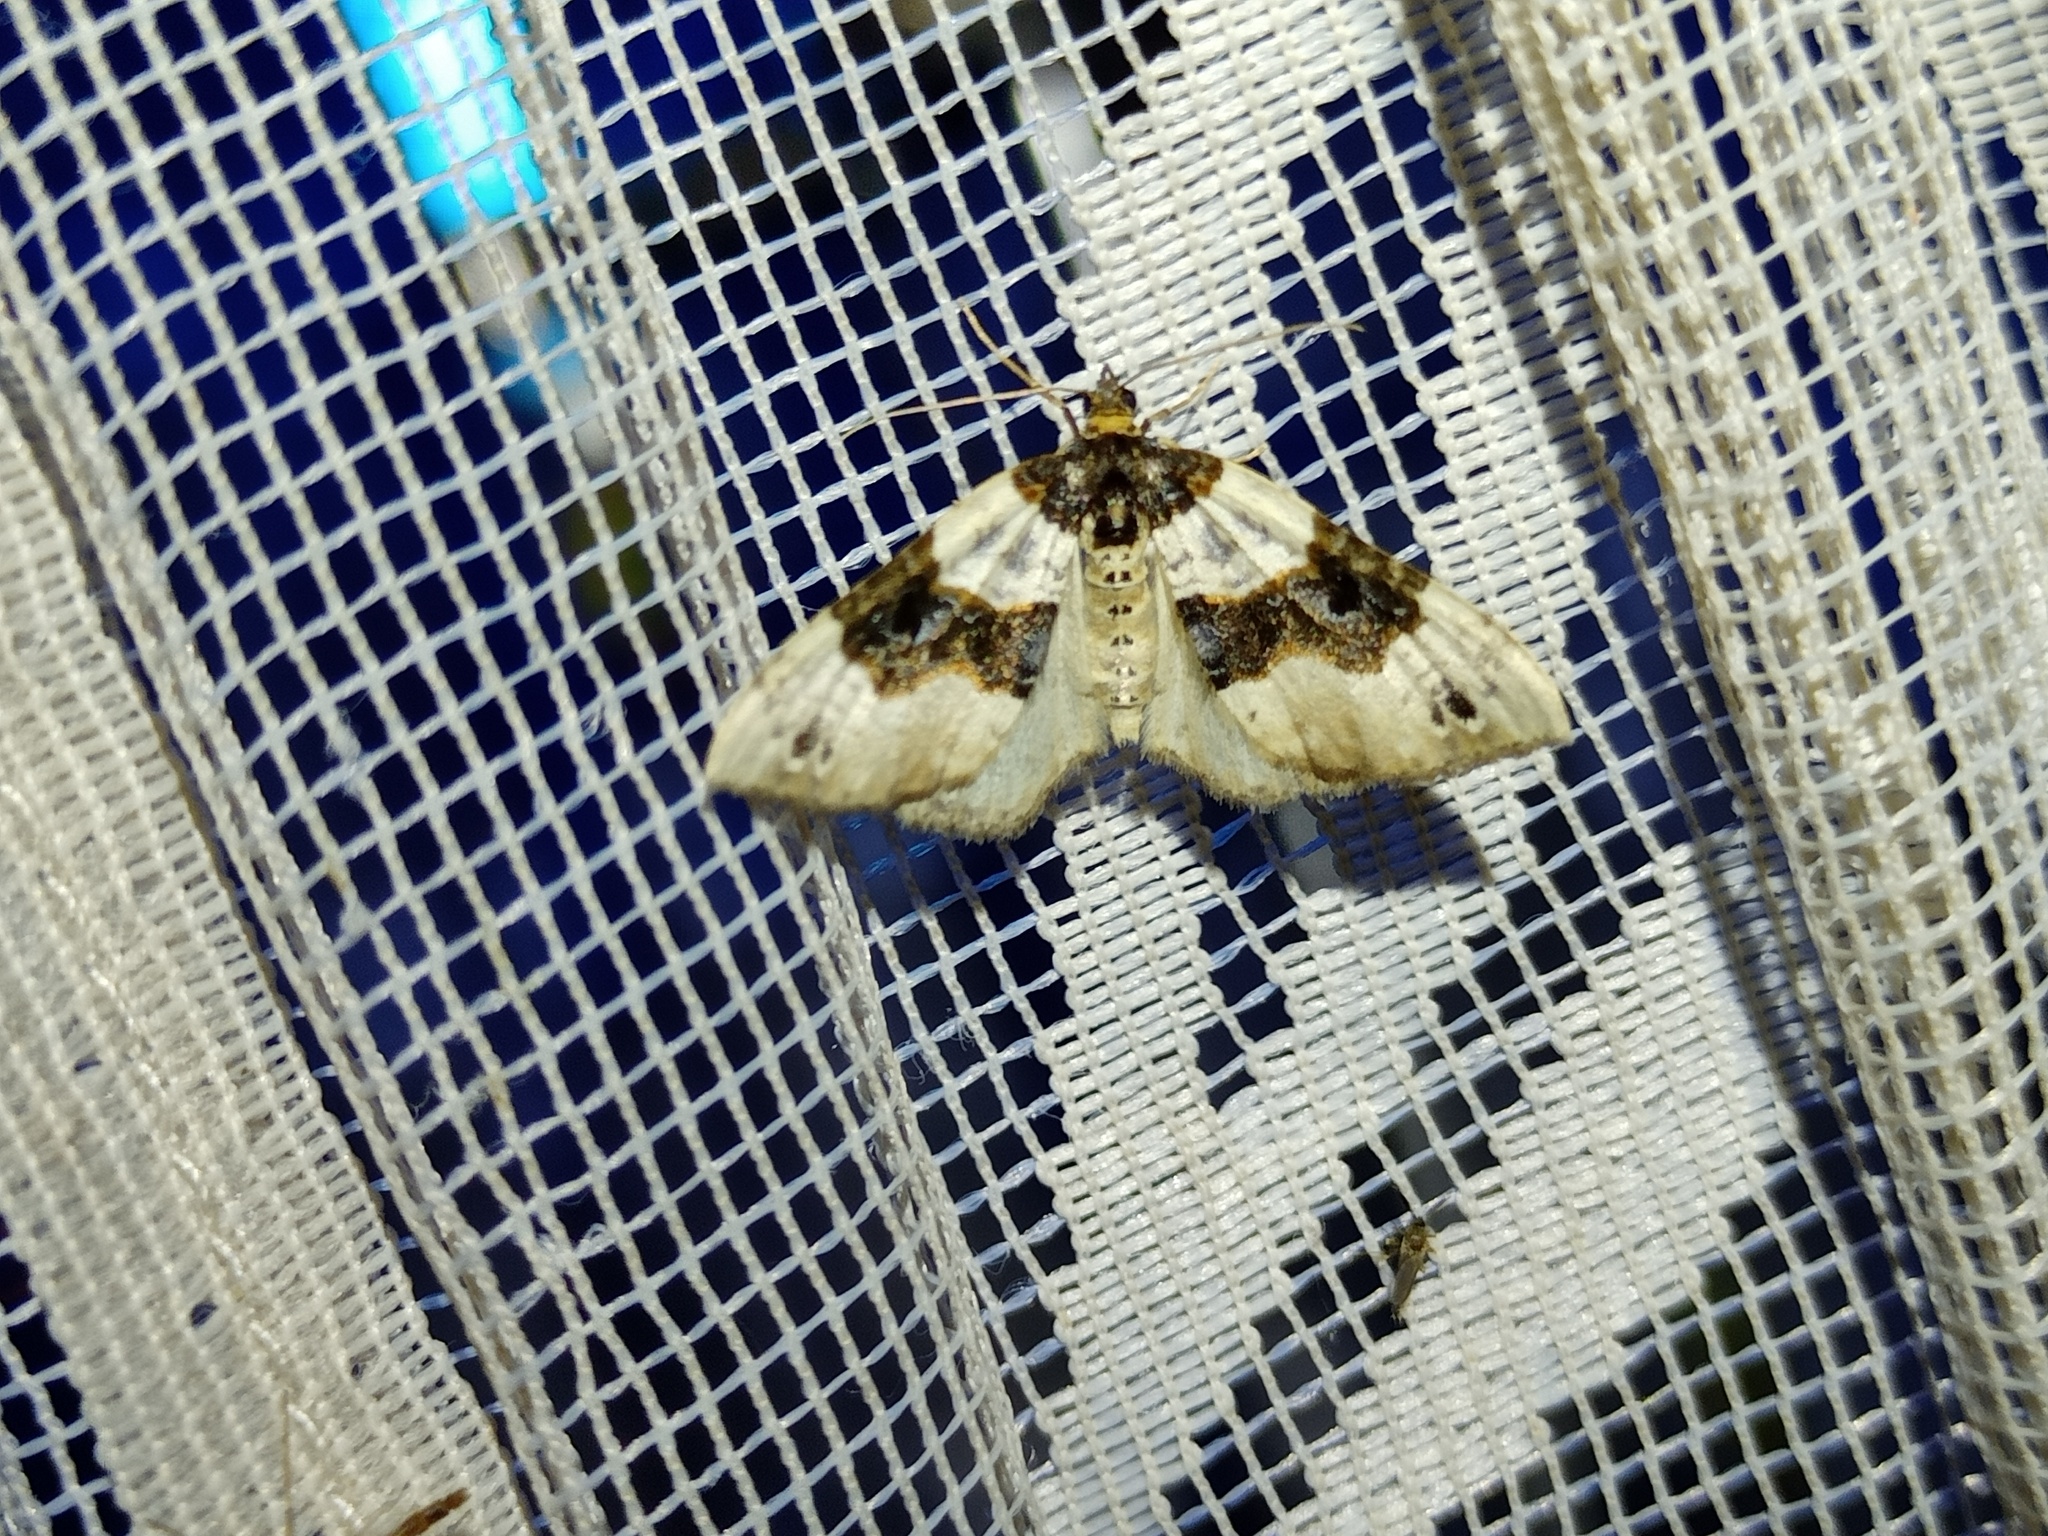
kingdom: Animalia
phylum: Arthropoda
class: Insecta
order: Lepidoptera
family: Geometridae
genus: Cosmorhoe
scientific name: Cosmorhoe ocellata
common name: Purple bar
